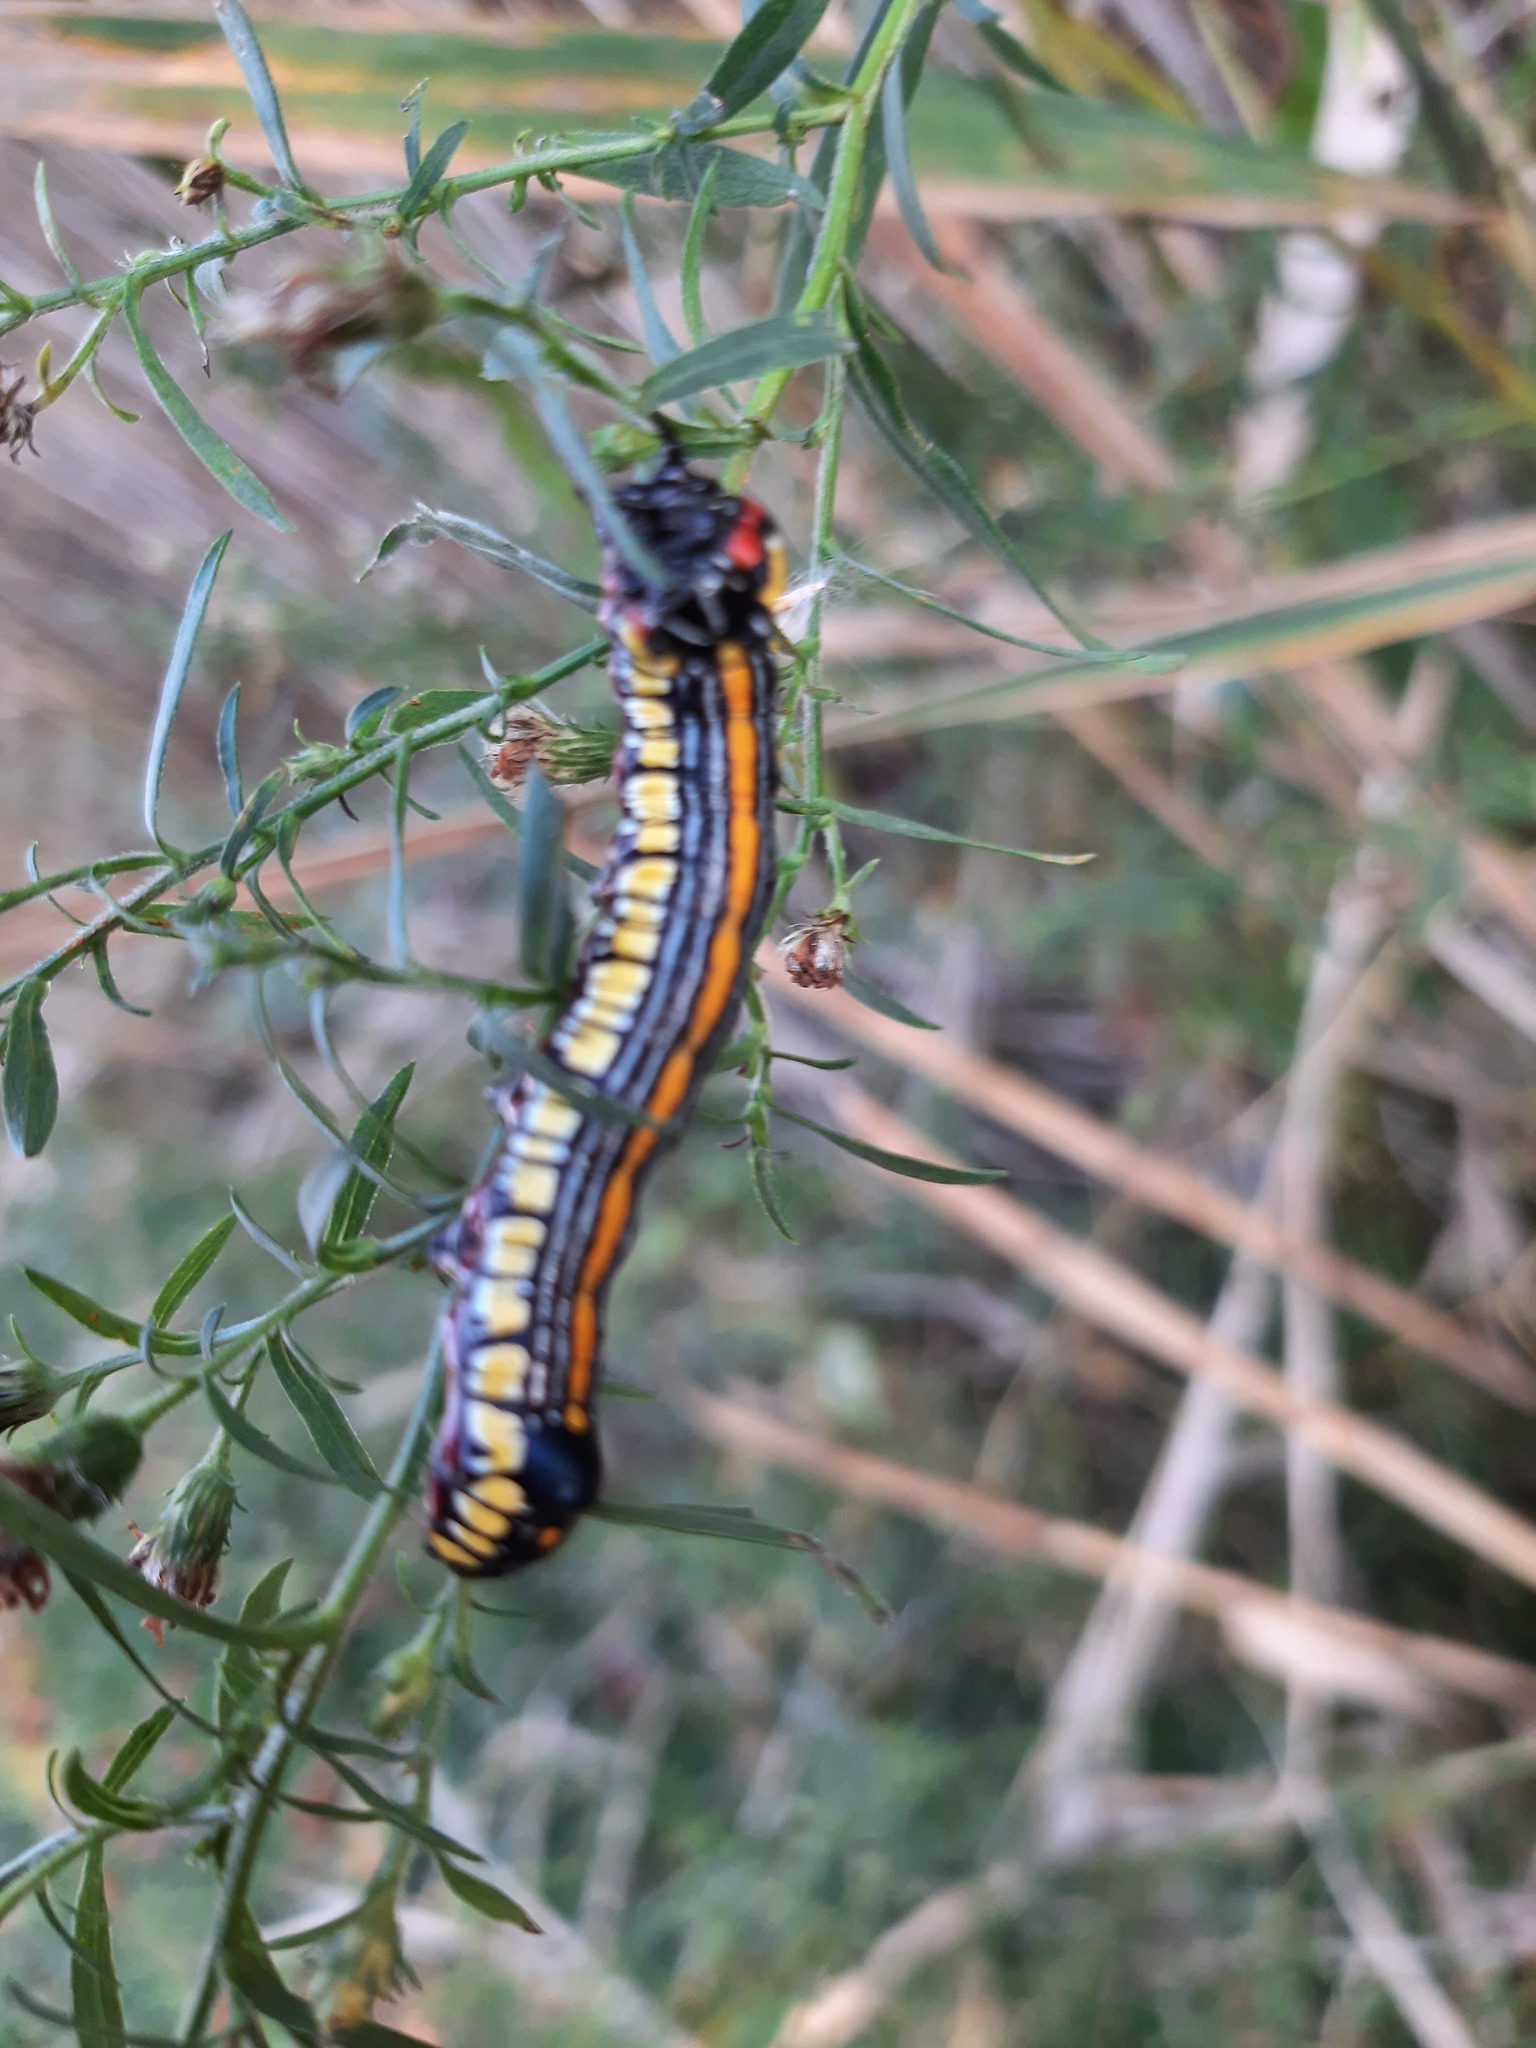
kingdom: Animalia
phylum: Arthropoda
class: Insecta
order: Lepidoptera
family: Noctuidae
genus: Cucullia
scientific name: Cucullia convexipennis
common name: Brown-hooded owlet
